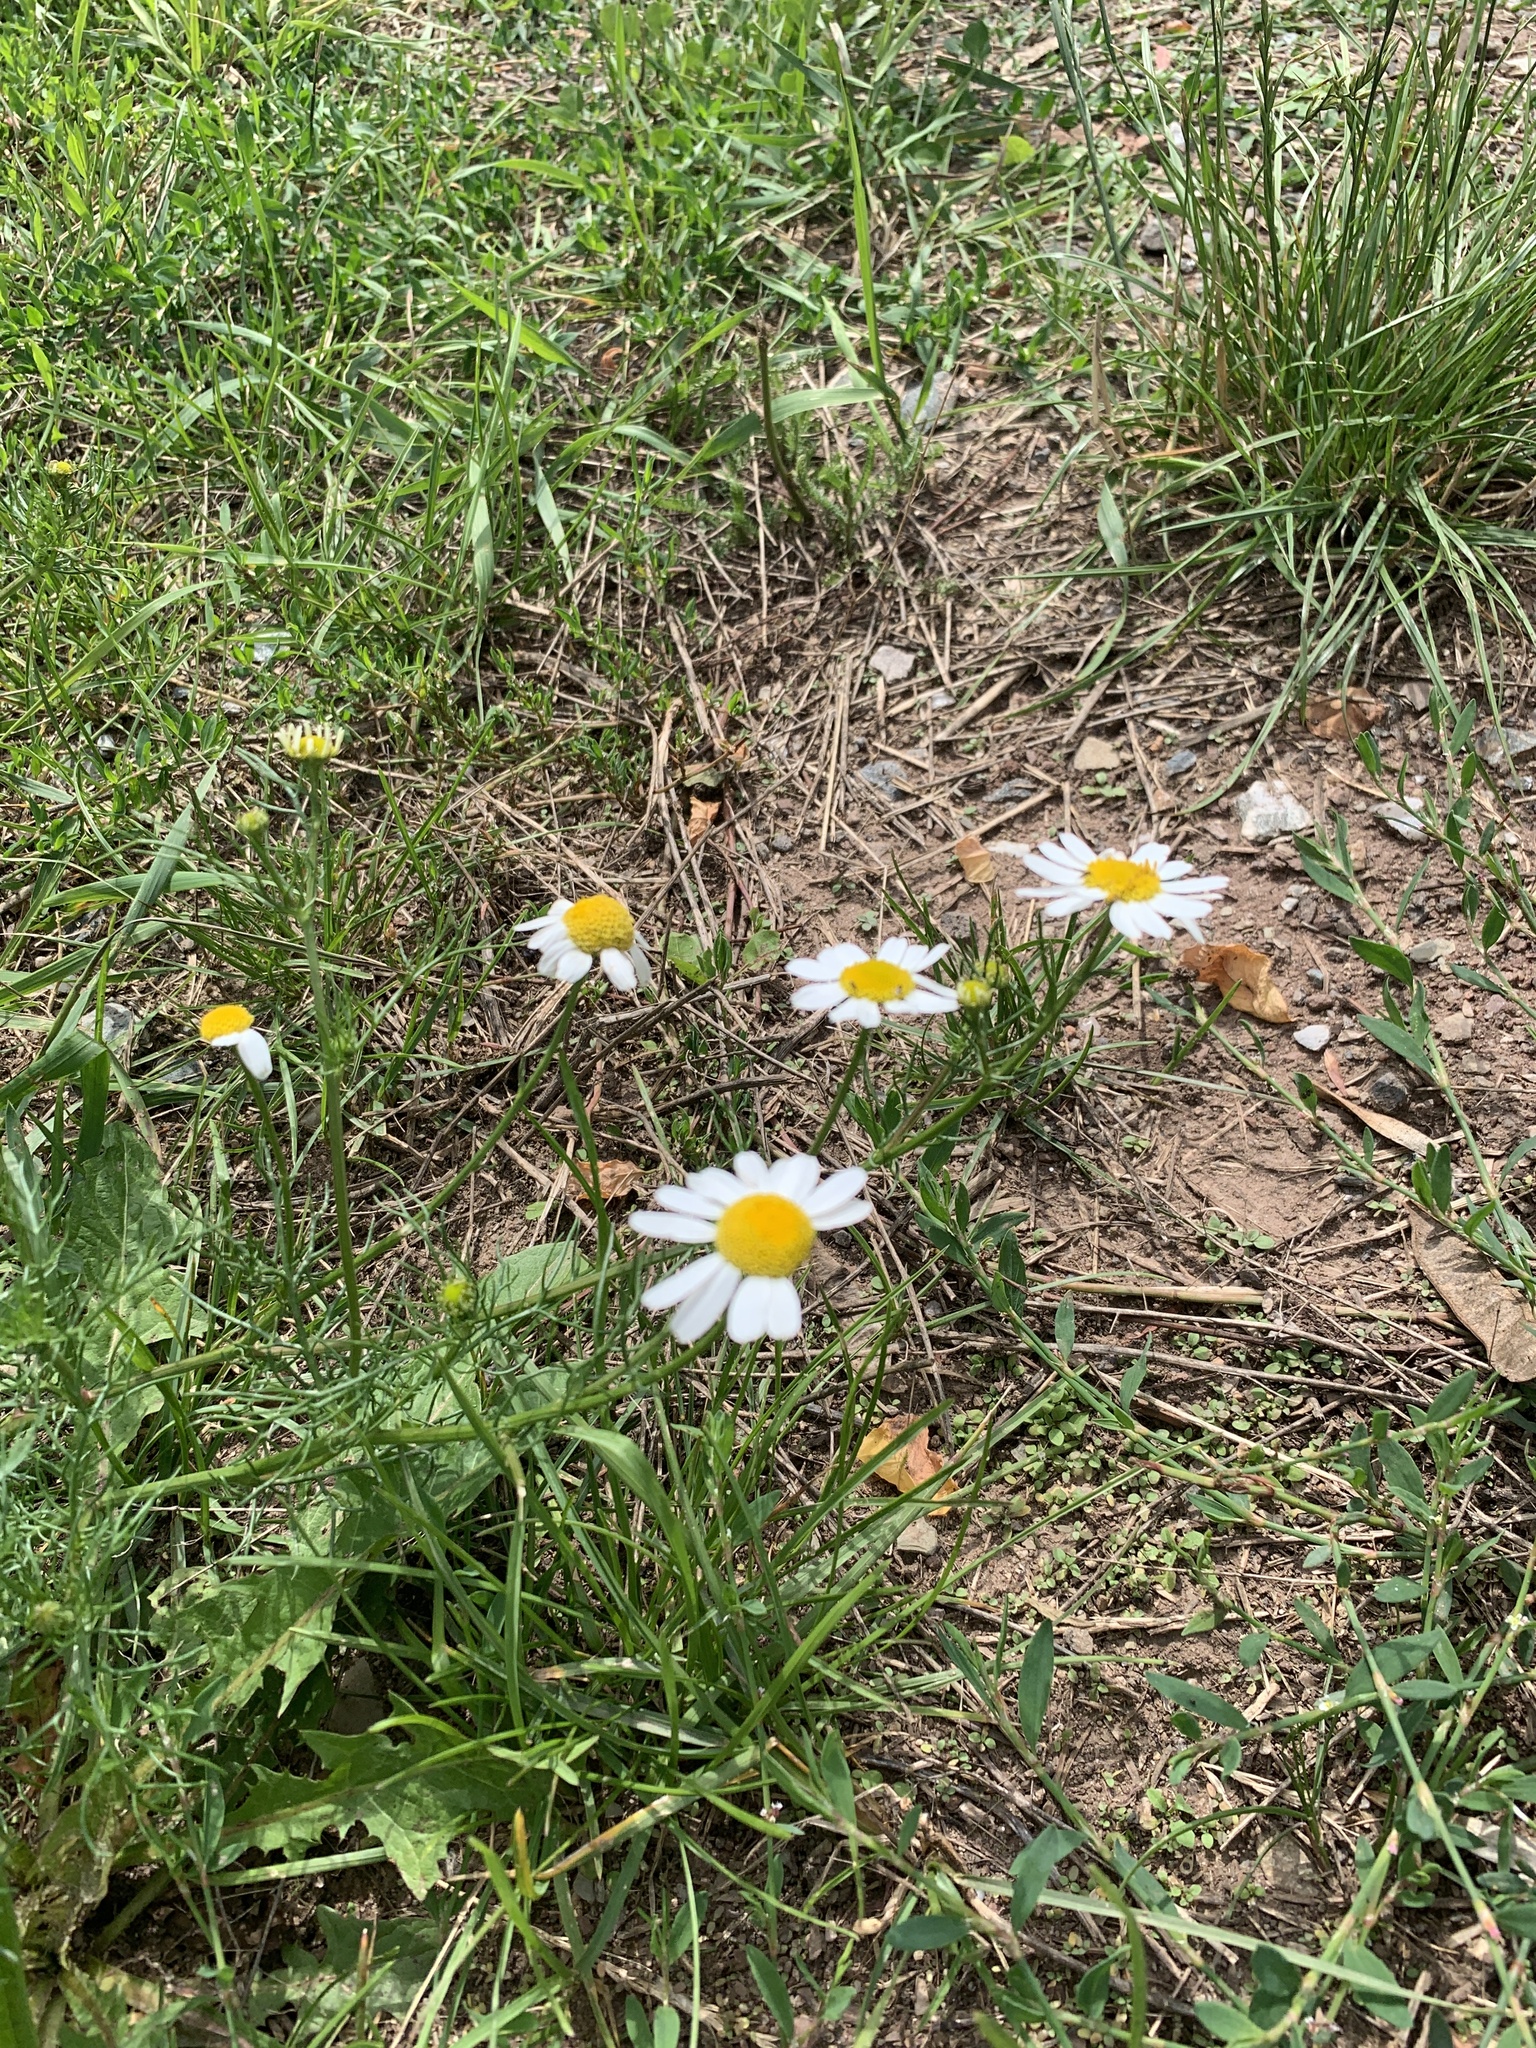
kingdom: Plantae
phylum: Tracheophyta
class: Magnoliopsida
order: Asterales
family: Asteraceae
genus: Tripleurospermum
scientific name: Tripleurospermum inodorum
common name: Scentless mayweed
